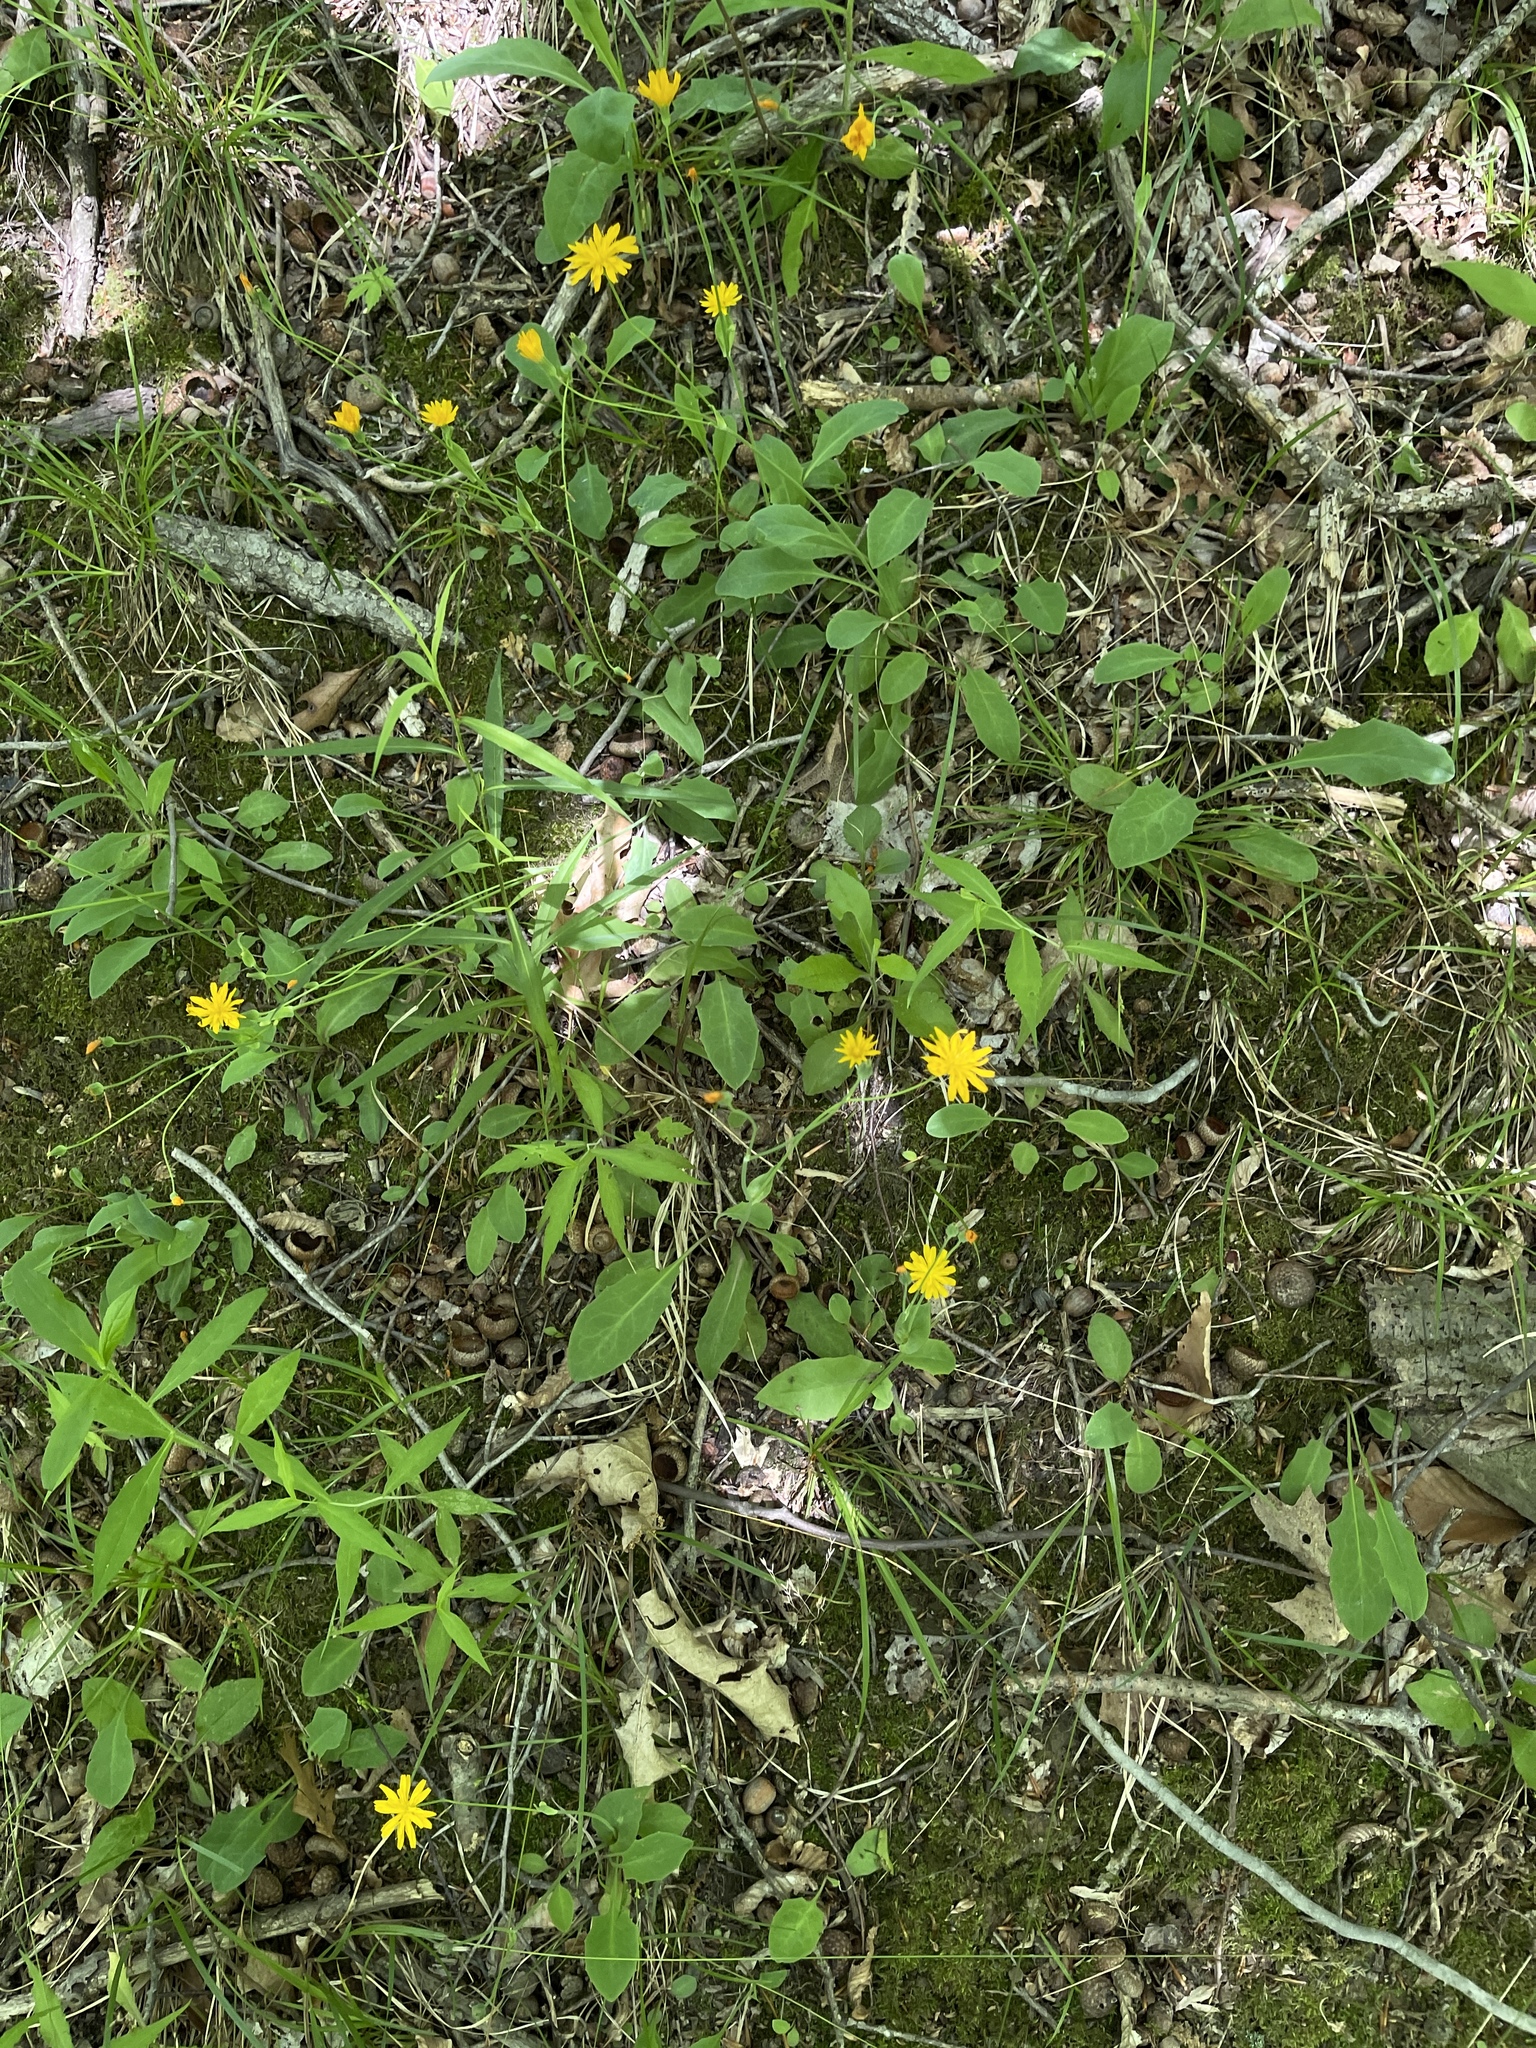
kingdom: Plantae
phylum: Tracheophyta
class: Magnoliopsida
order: Asterales
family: Asteraceae
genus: Krigia
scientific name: Krigia biflora
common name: Orange dwarf-dandelion
